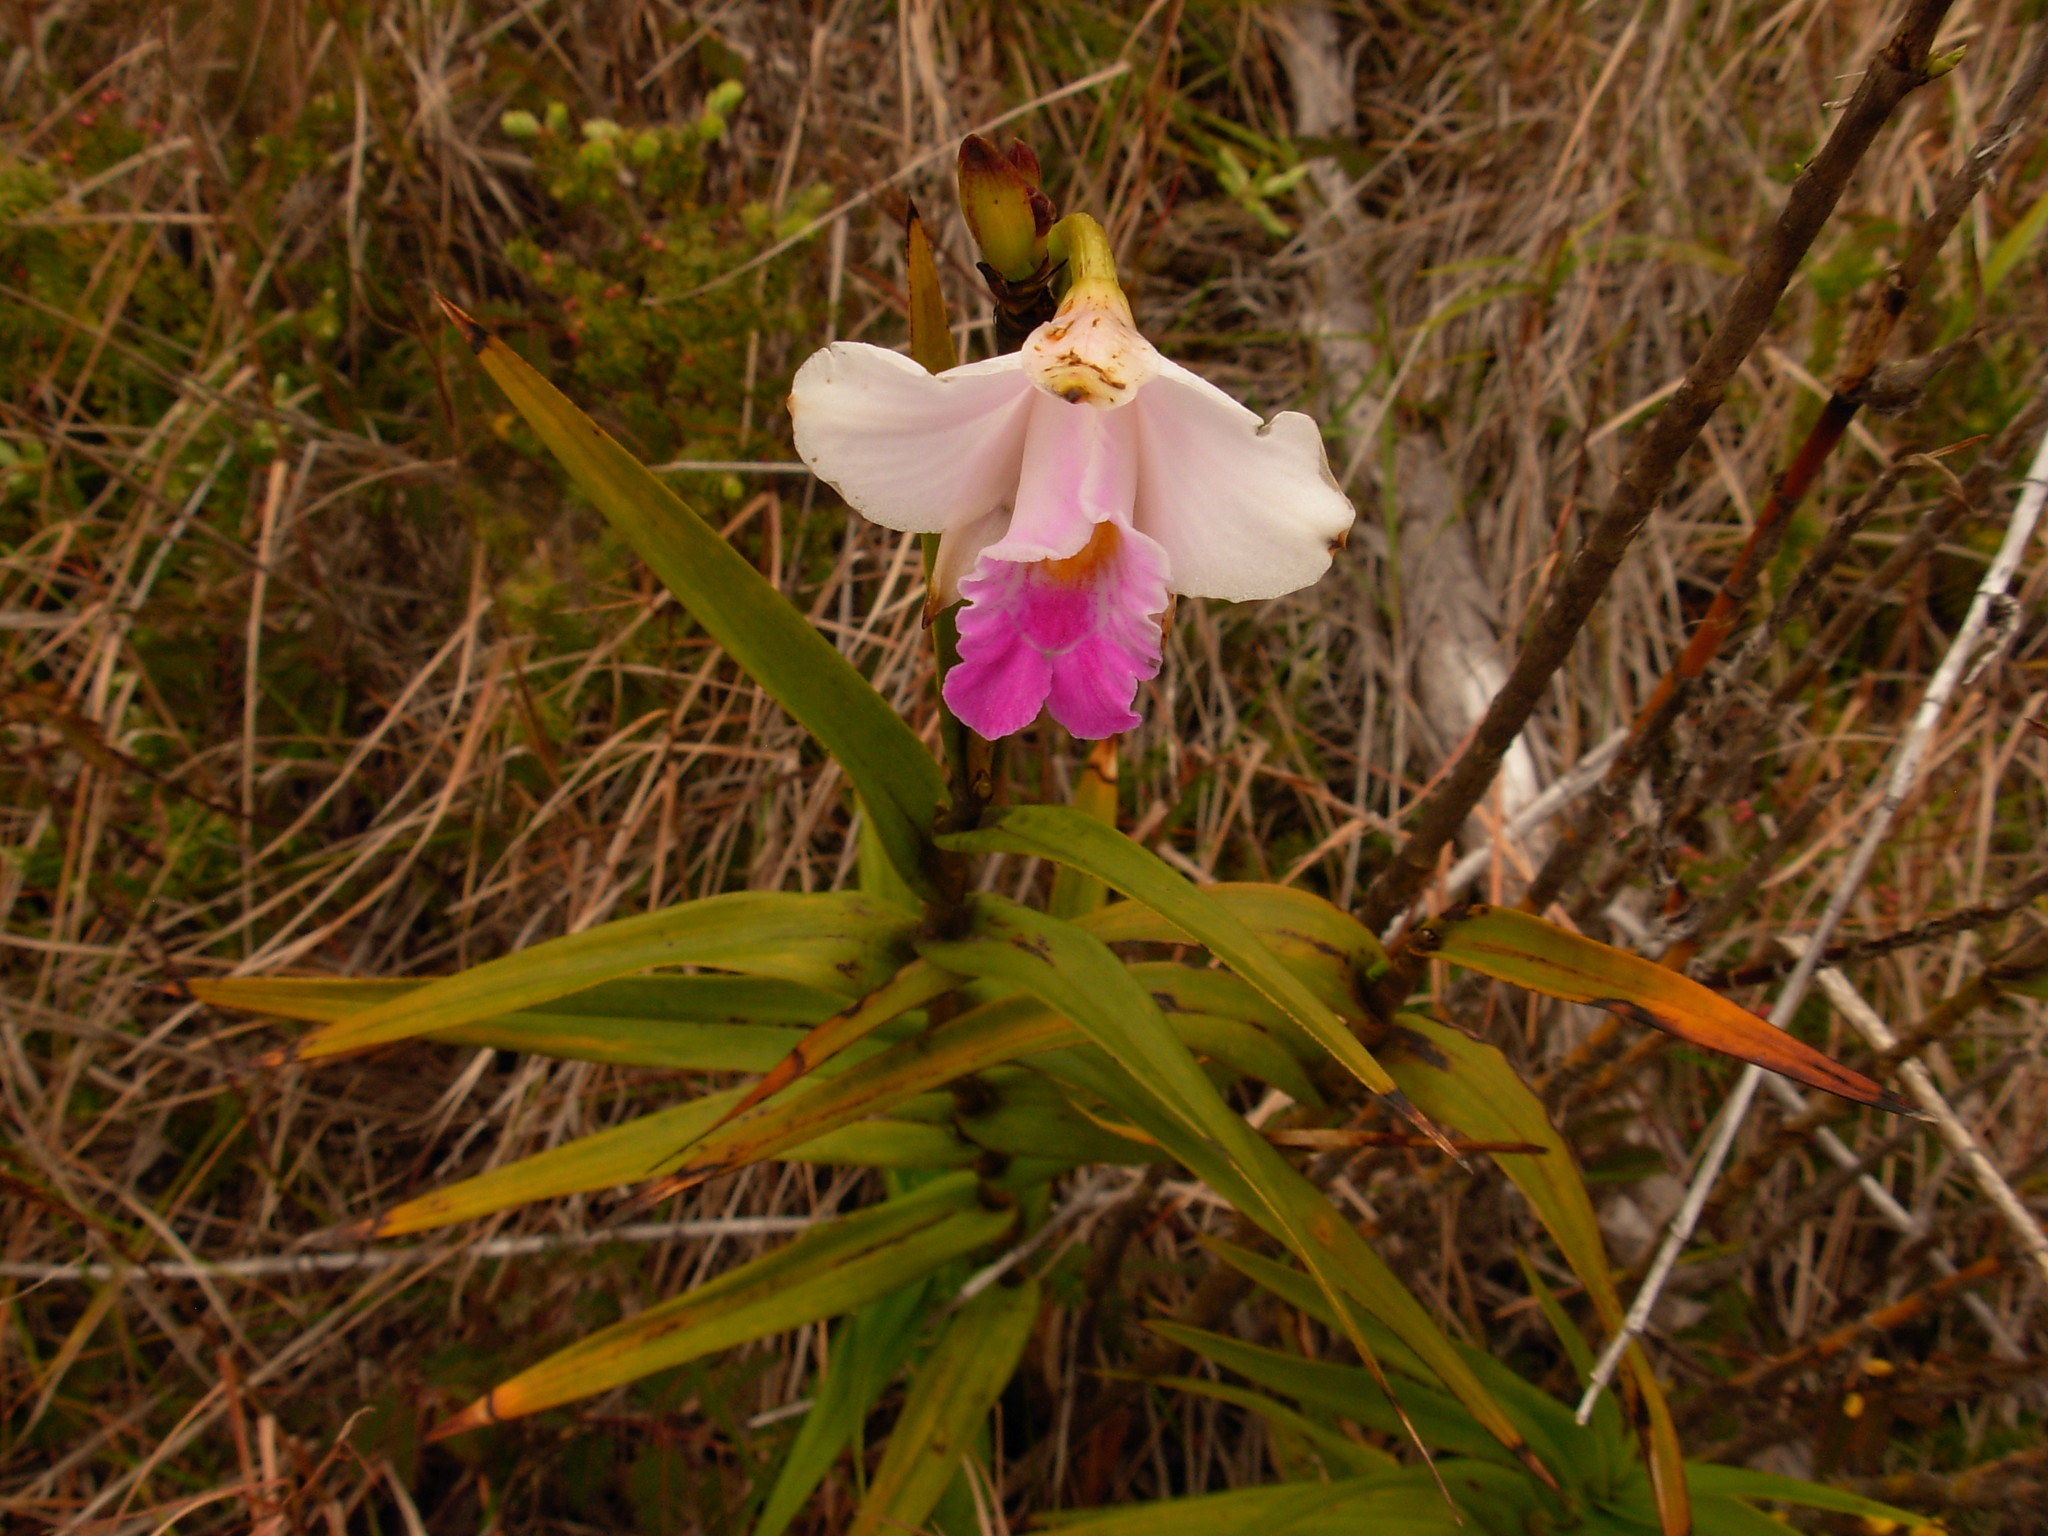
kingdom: Plantae
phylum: Tracheophyta
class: Liliopsida
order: Asparagales
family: Orchidaceae
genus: Arundina
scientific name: Arundina graminifolia
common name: Bamboo orchid
